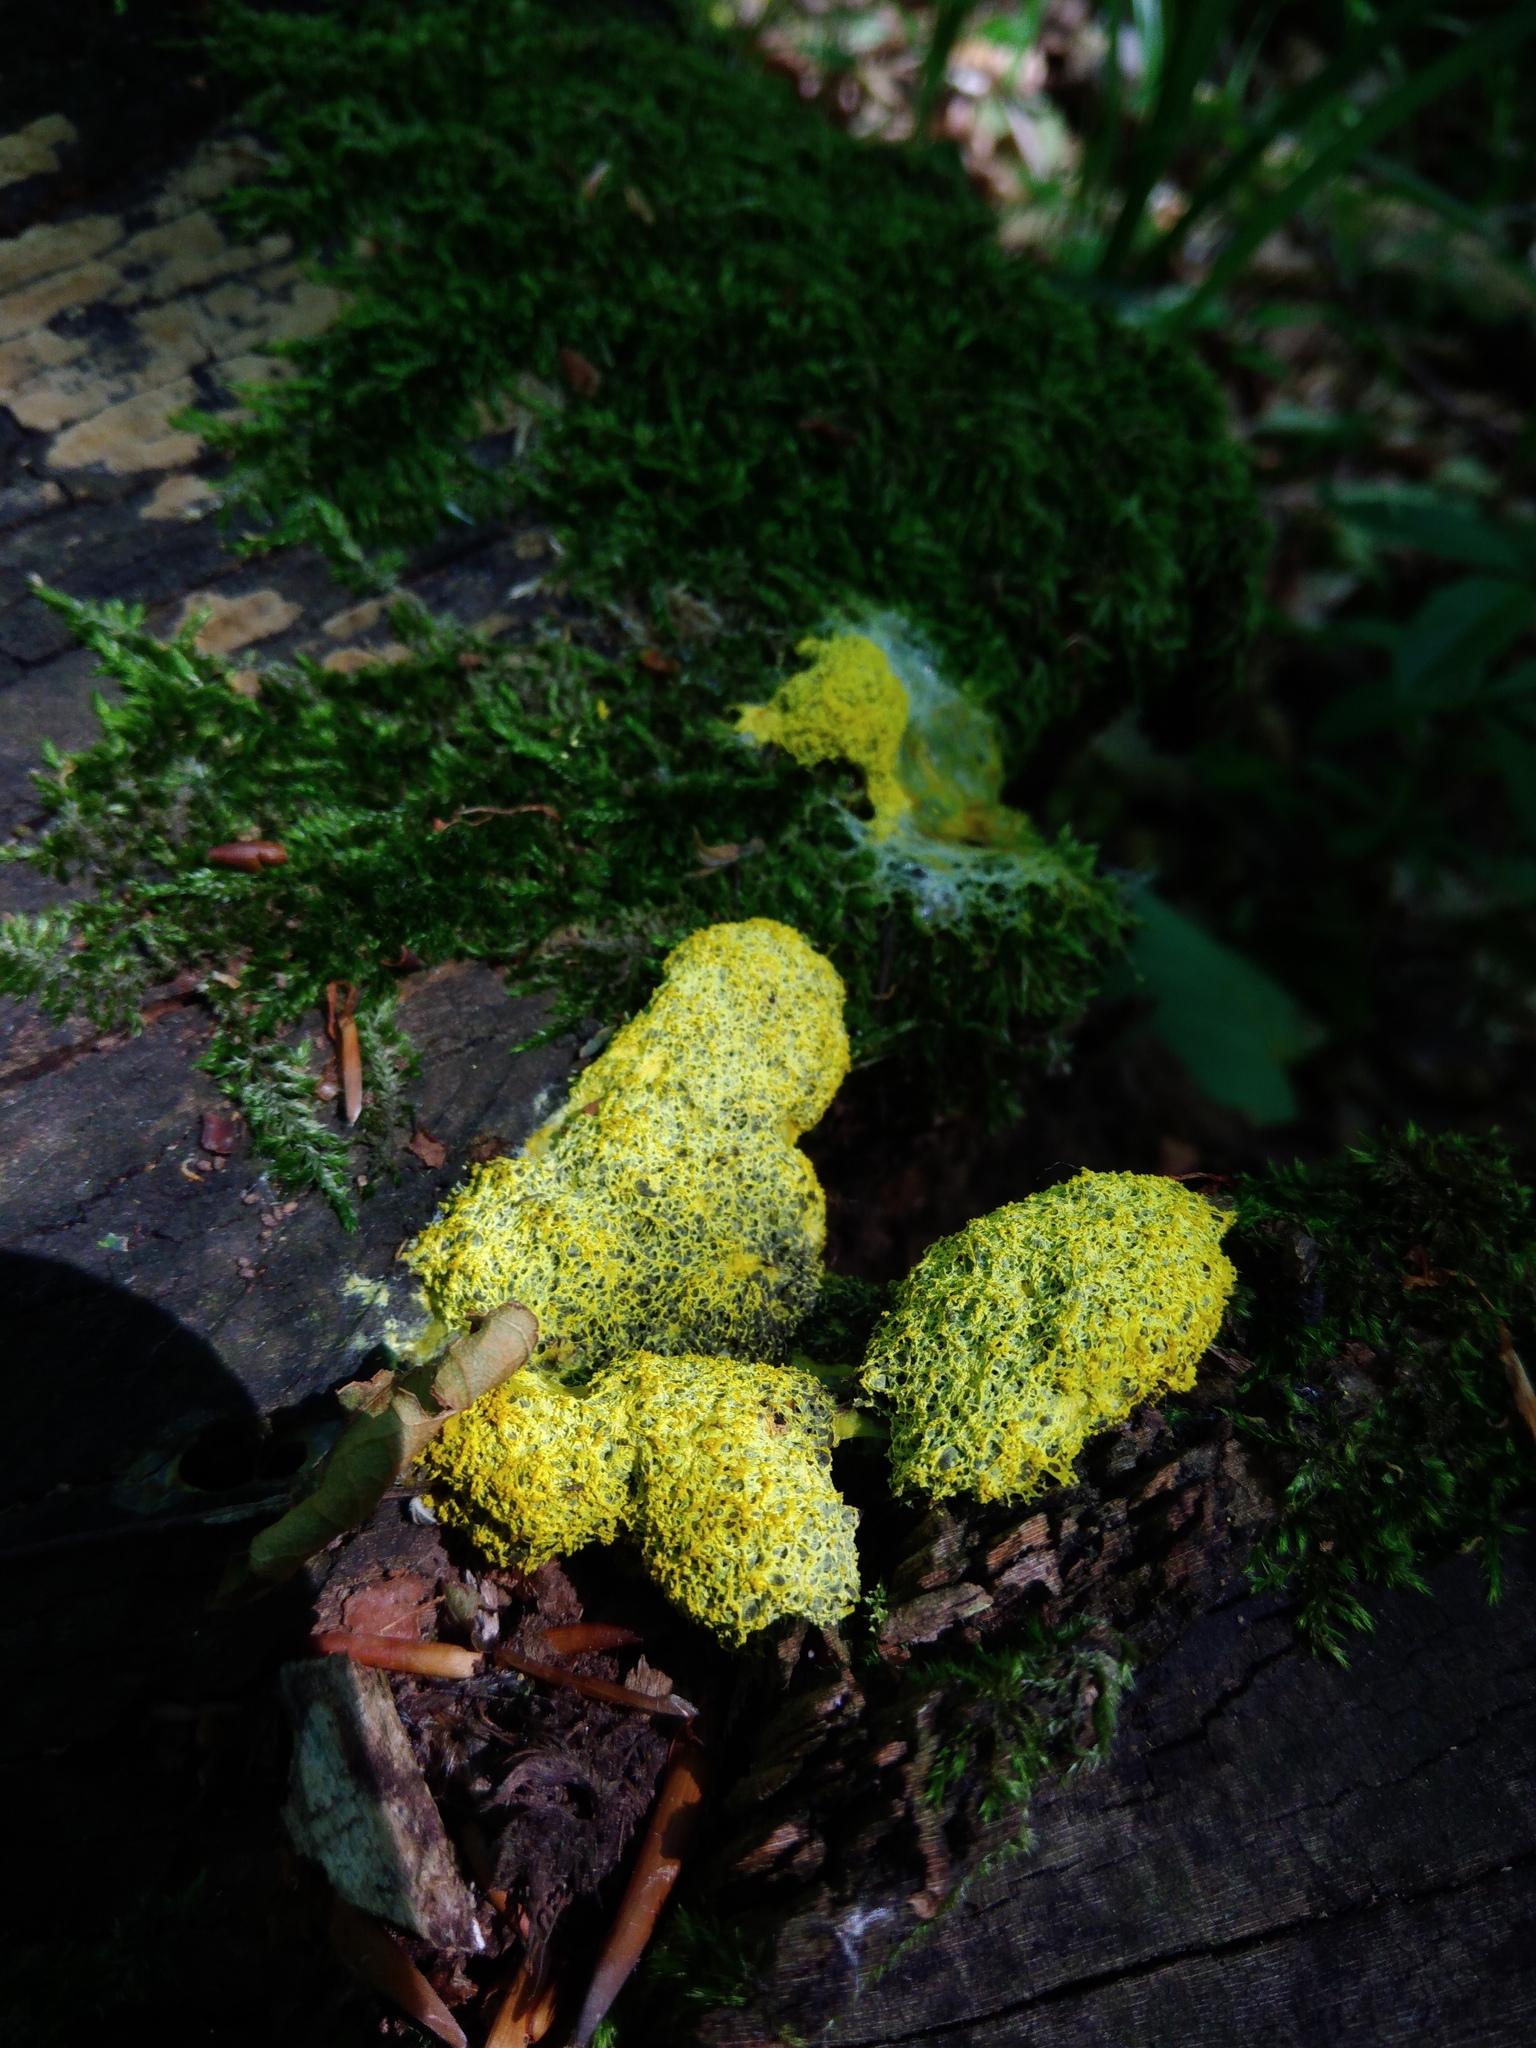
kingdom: Protozoa
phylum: Mycetozoa
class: Myxomycetes
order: Physarales
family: Physaraceae
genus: Fuligo
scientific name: Fuligo septica
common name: Dog vomit slime mold
